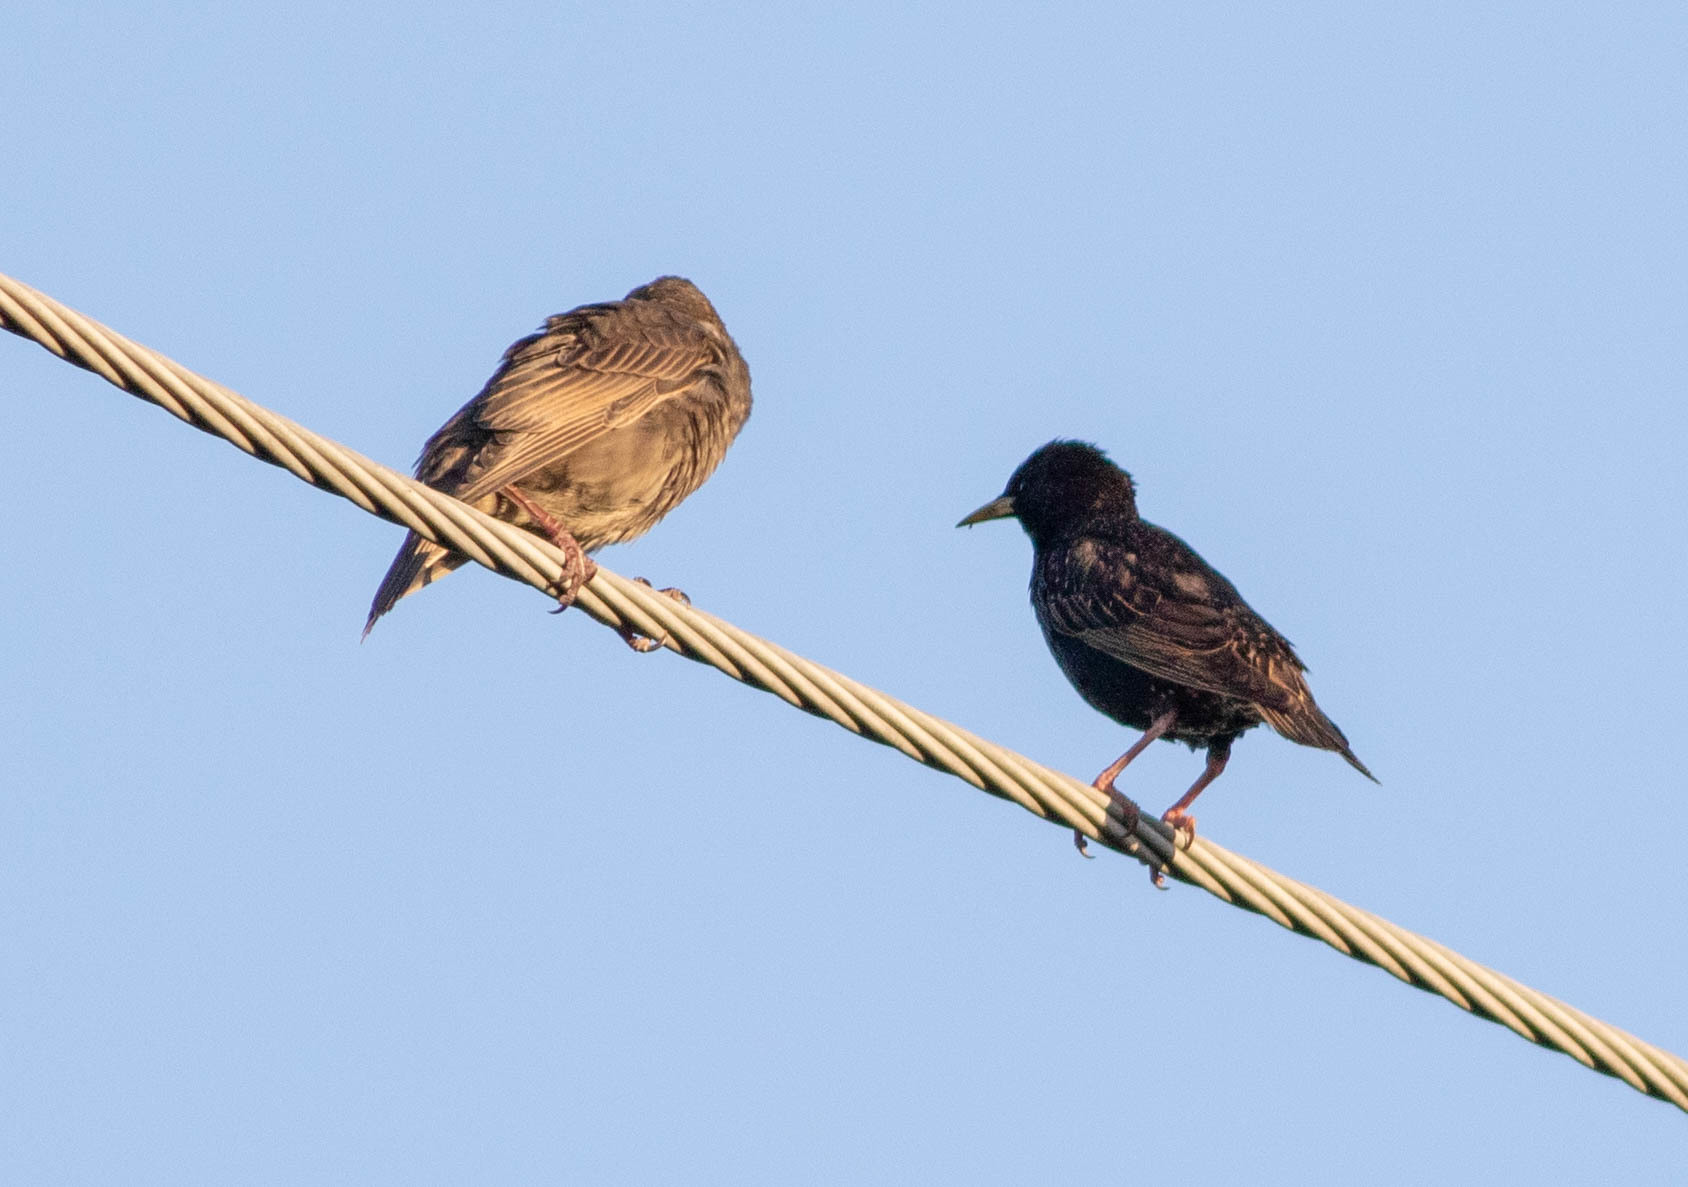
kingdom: Animalia
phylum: Chordata
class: Aves
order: Passeriformes
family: Sturnidae
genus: Sturnus
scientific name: Sturnus vulgaris
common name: Common starling
